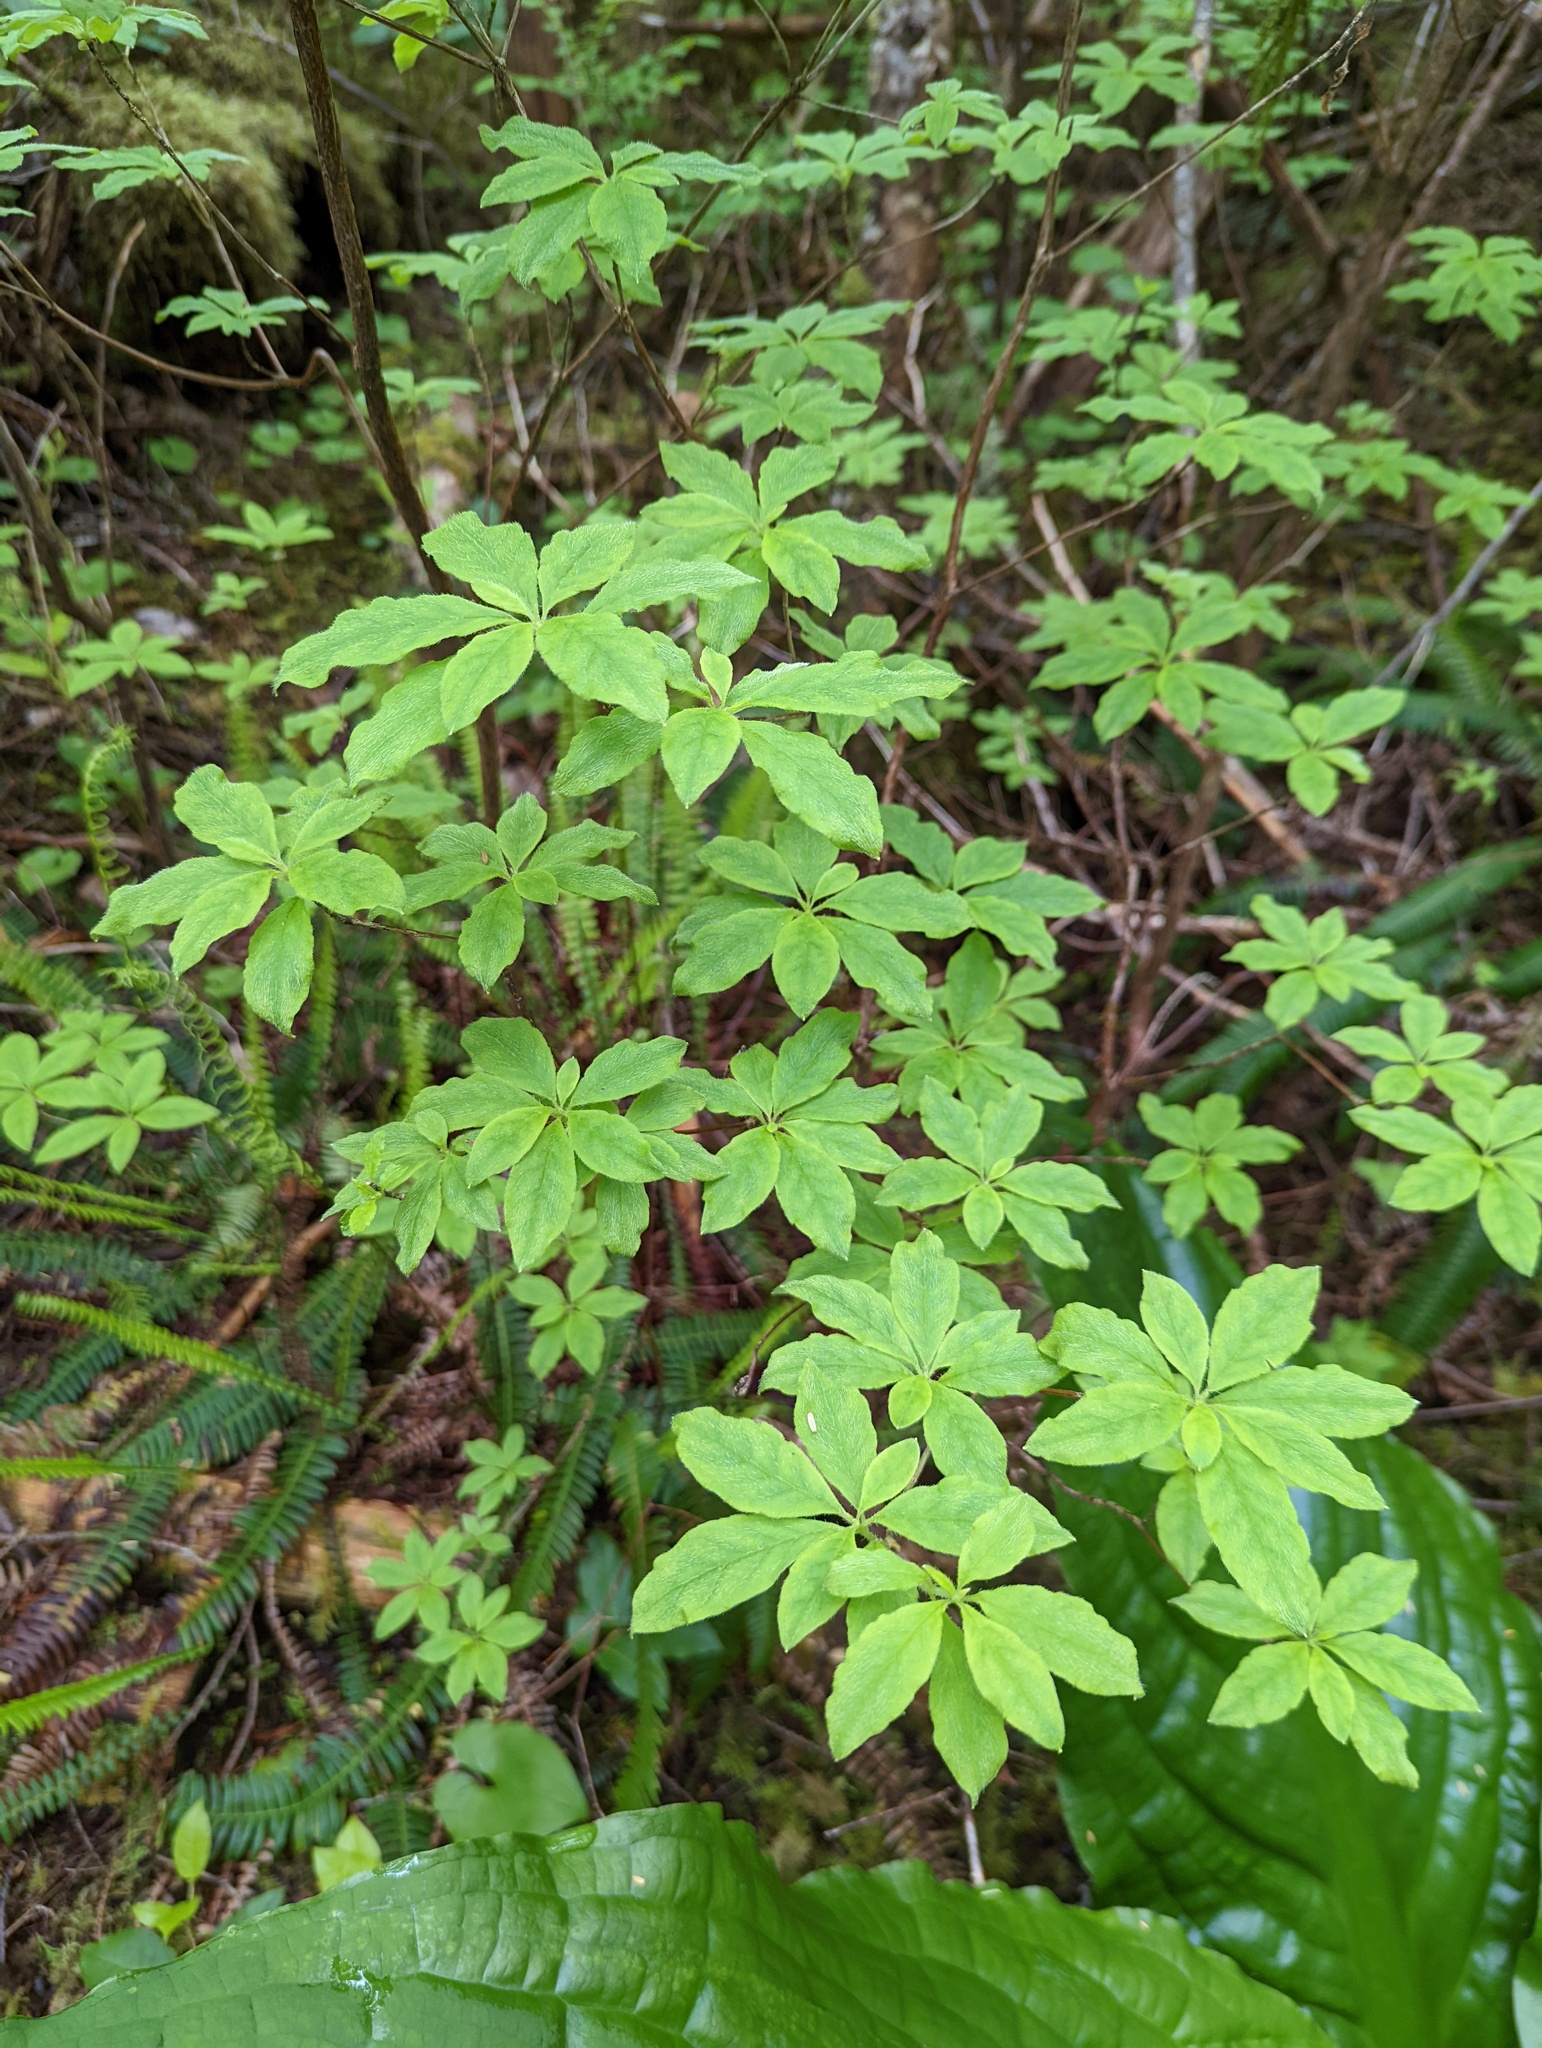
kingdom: Plantae
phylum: Tracheophyta
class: Magnoliopsida
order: Ericales
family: Ericaceae
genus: Rhododendron
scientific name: Rhododendron menziesii
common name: Pacific menziesia
